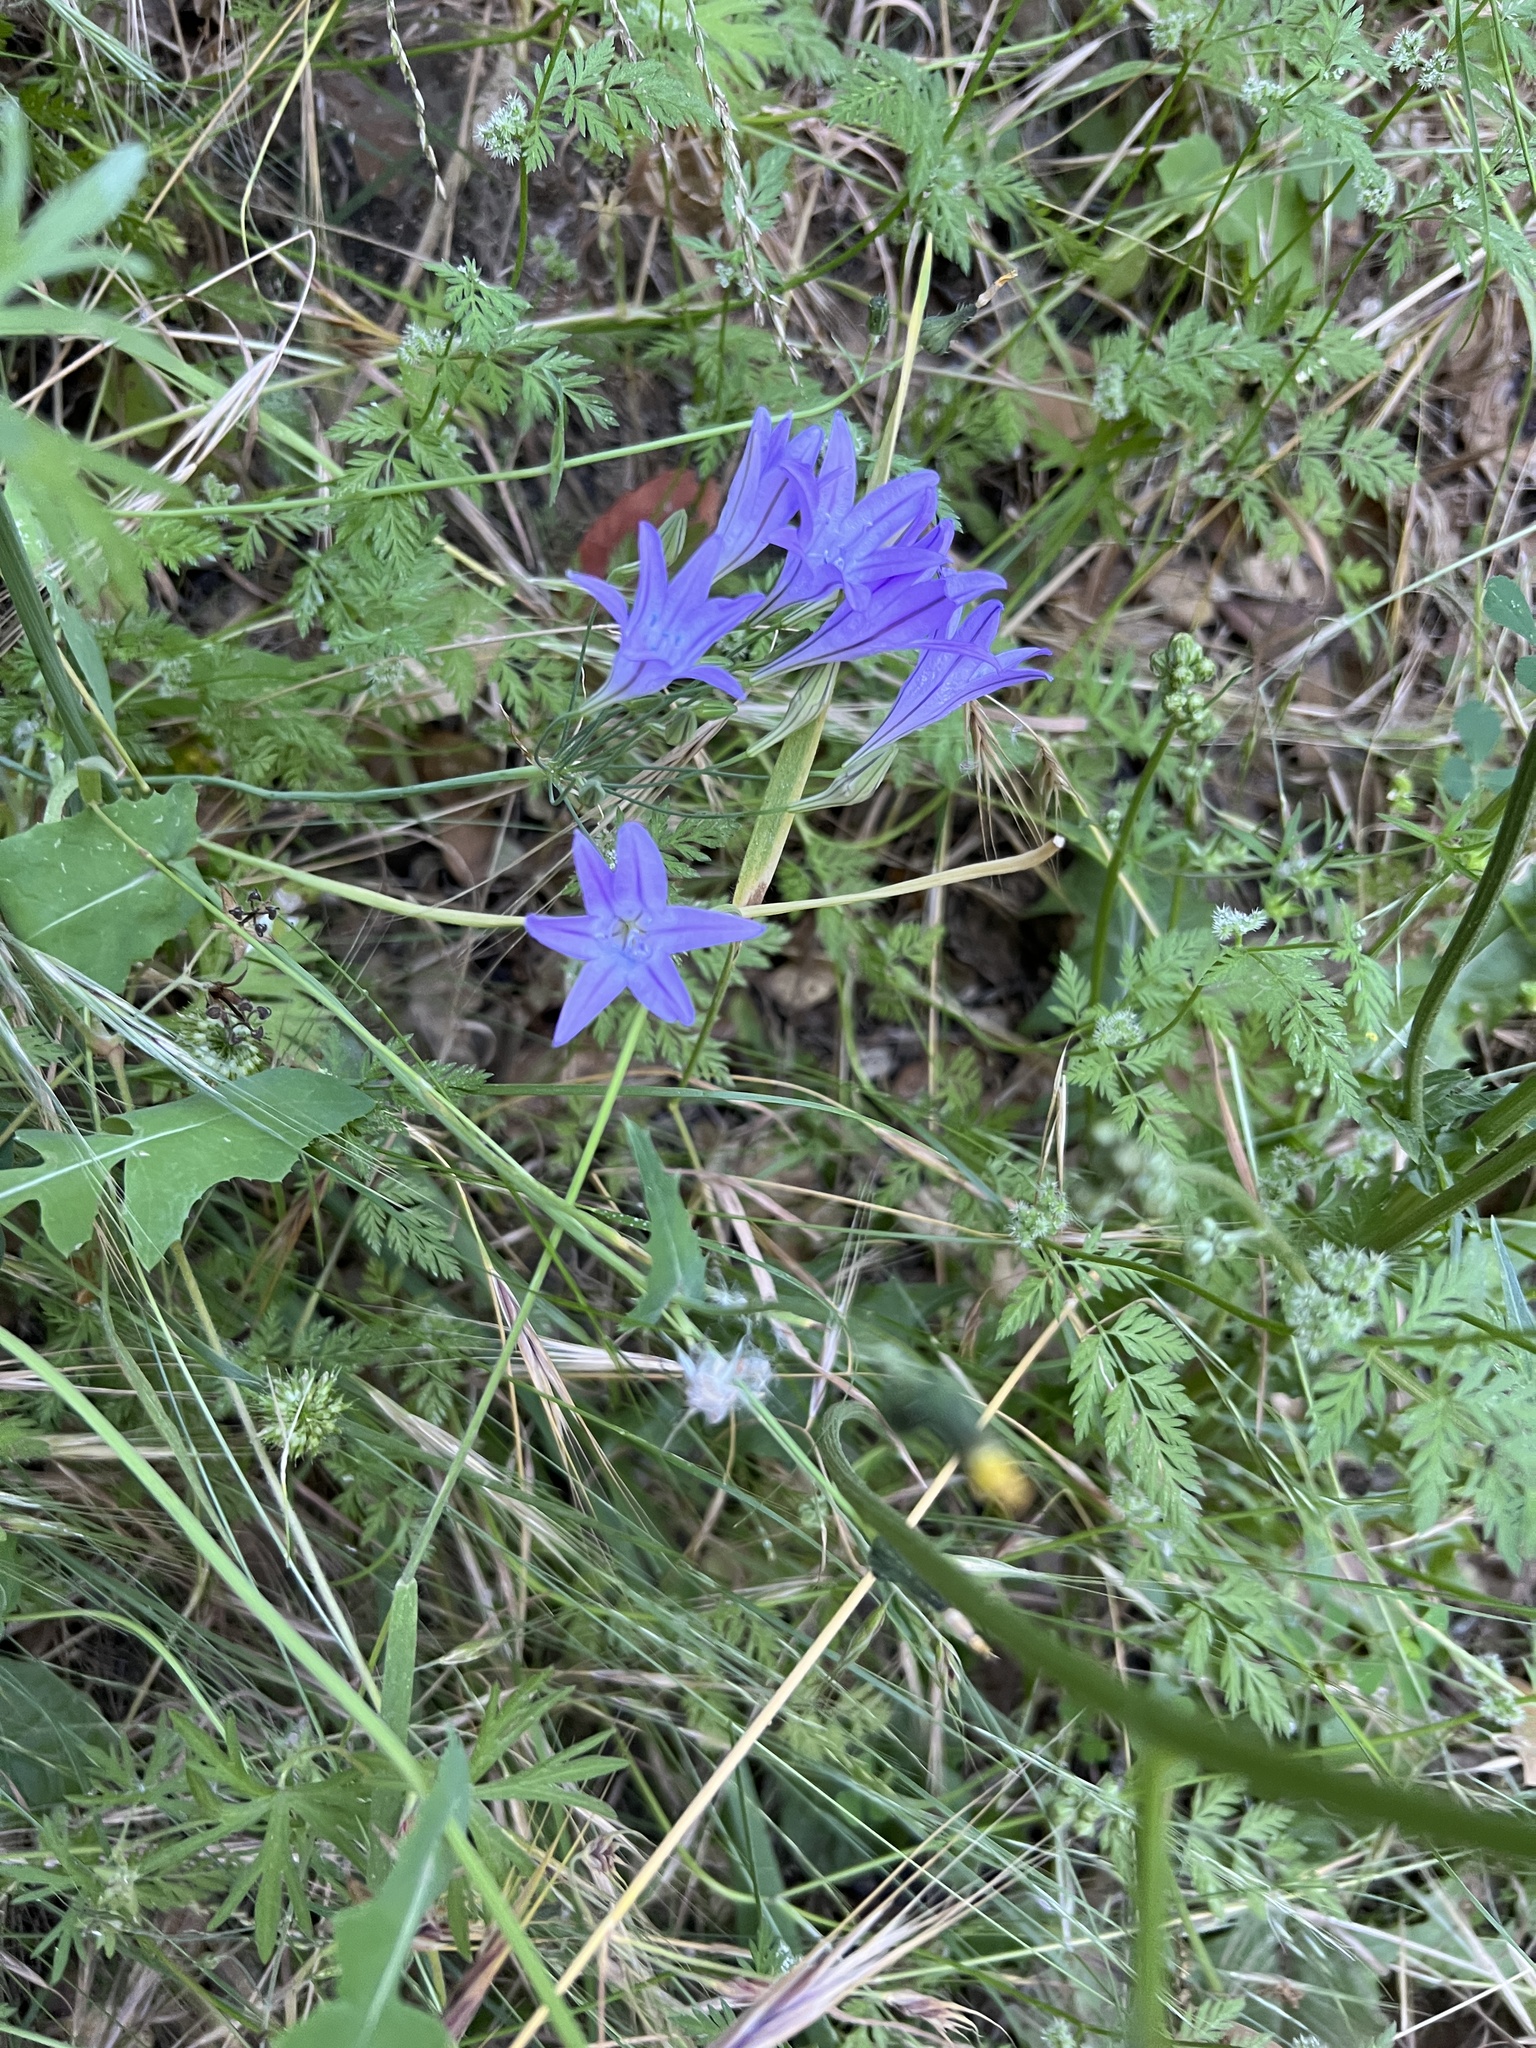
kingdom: Plantae
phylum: Tracheophyta
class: Liliopsida
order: Asparagales
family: Asparagaceae
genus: Triteleia
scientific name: Triteleia laxa
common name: Triplet-lily
